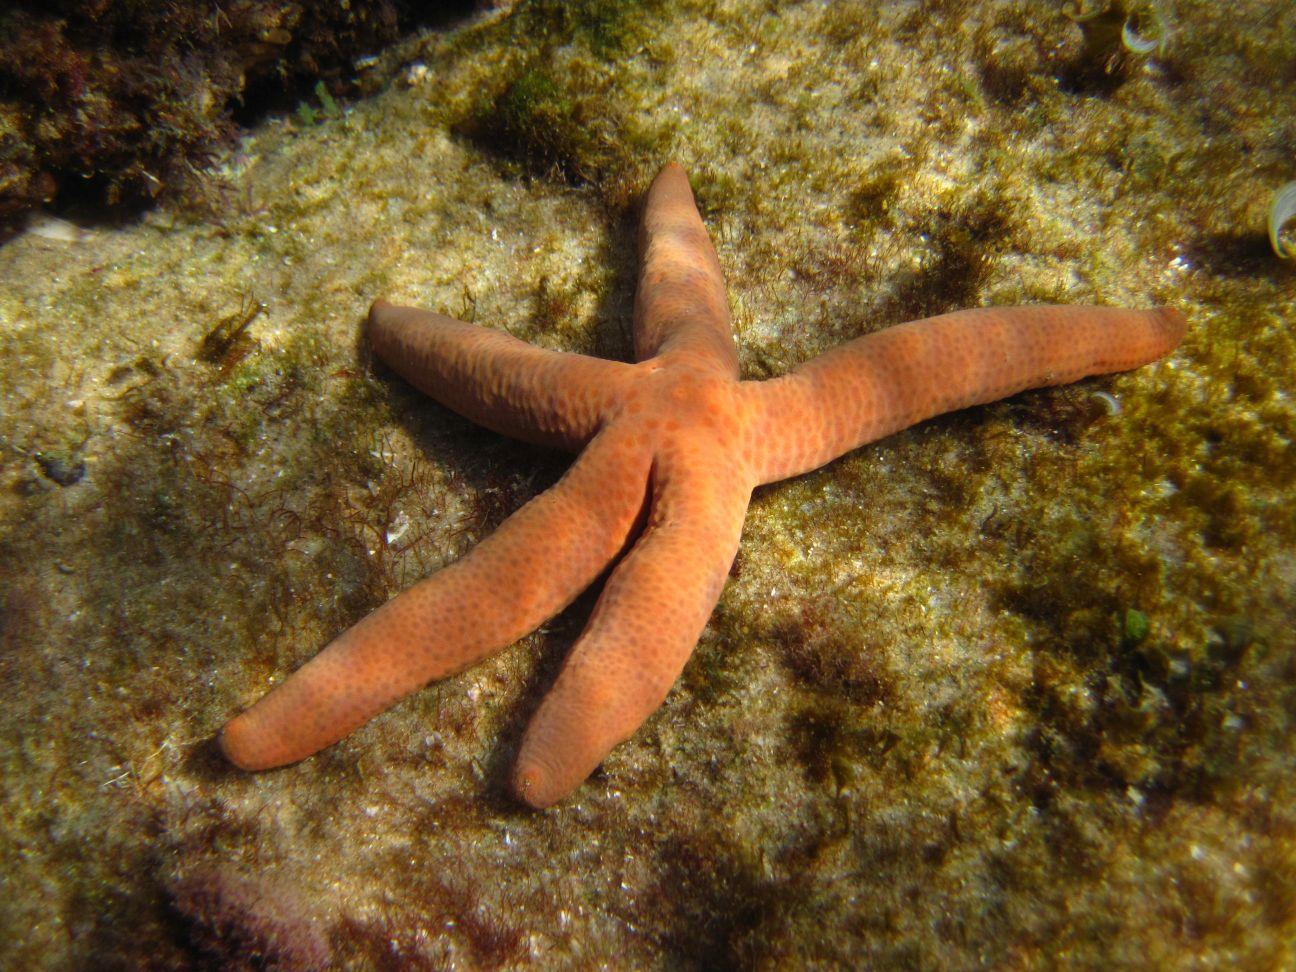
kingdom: Animalia
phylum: Echinodermata
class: Asteroidea
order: Valvatida
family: Ophidiasteridae
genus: Linckia
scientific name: Linckia laevigata
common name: Azure sea star
